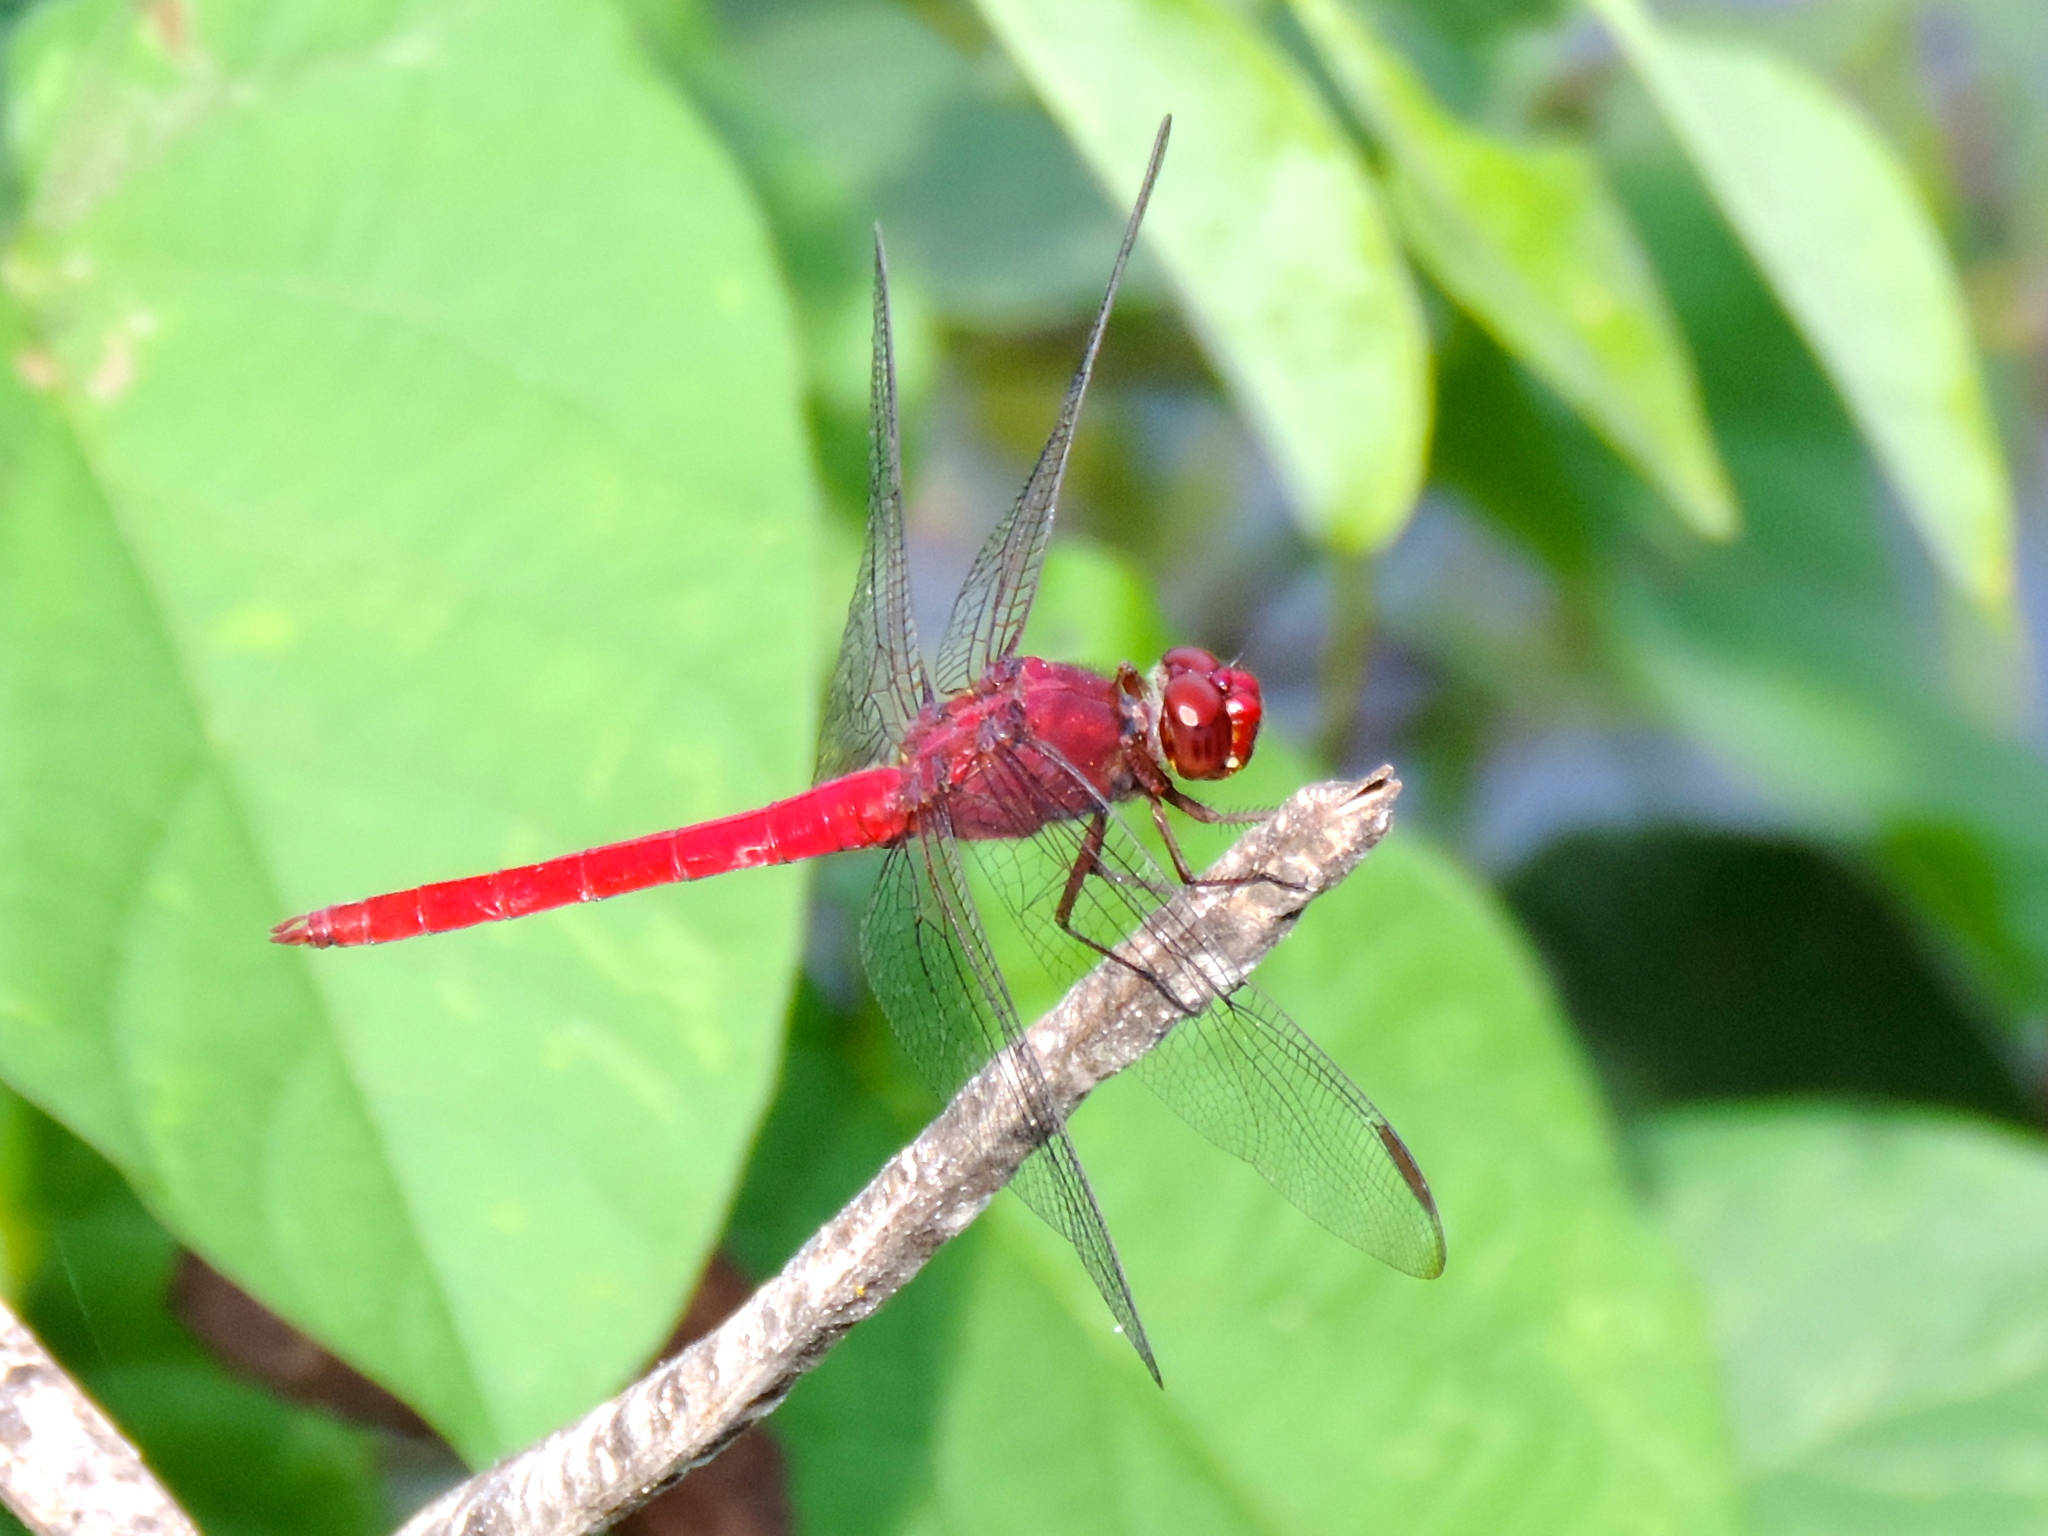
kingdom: Animalia
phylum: Arthropoda
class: Insecta
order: Odonata
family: Libellulidae
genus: Orthemis
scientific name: Orthemis schmidti
